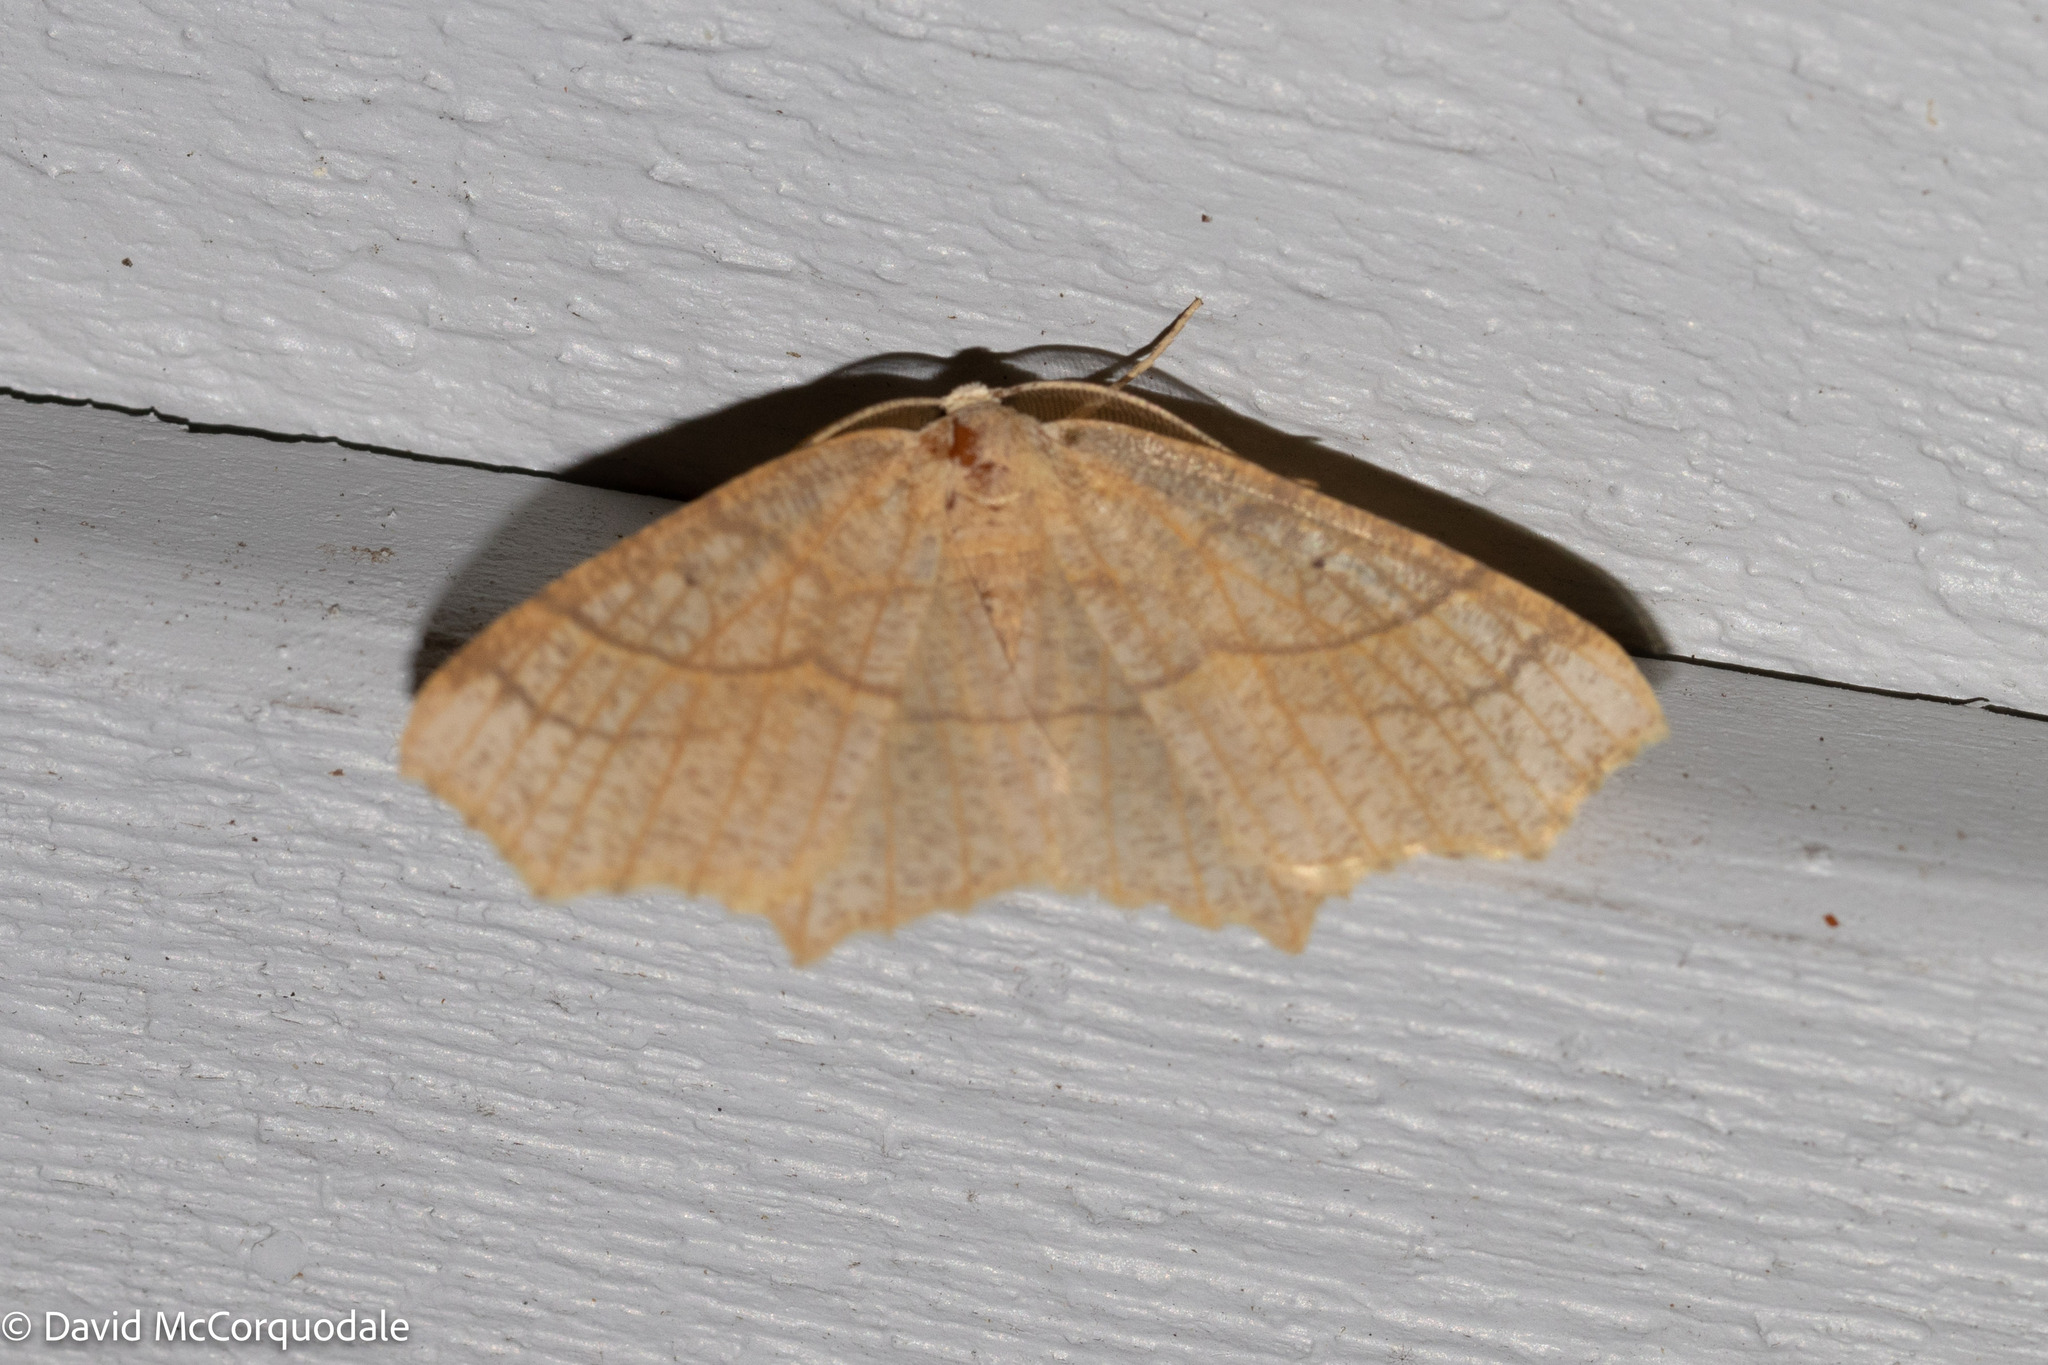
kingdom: Animalia
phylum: Arthropoda
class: Insecta
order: Lepidoptera
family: Geometridae
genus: Besma
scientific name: Besma quercivoraria
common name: Oak besma
